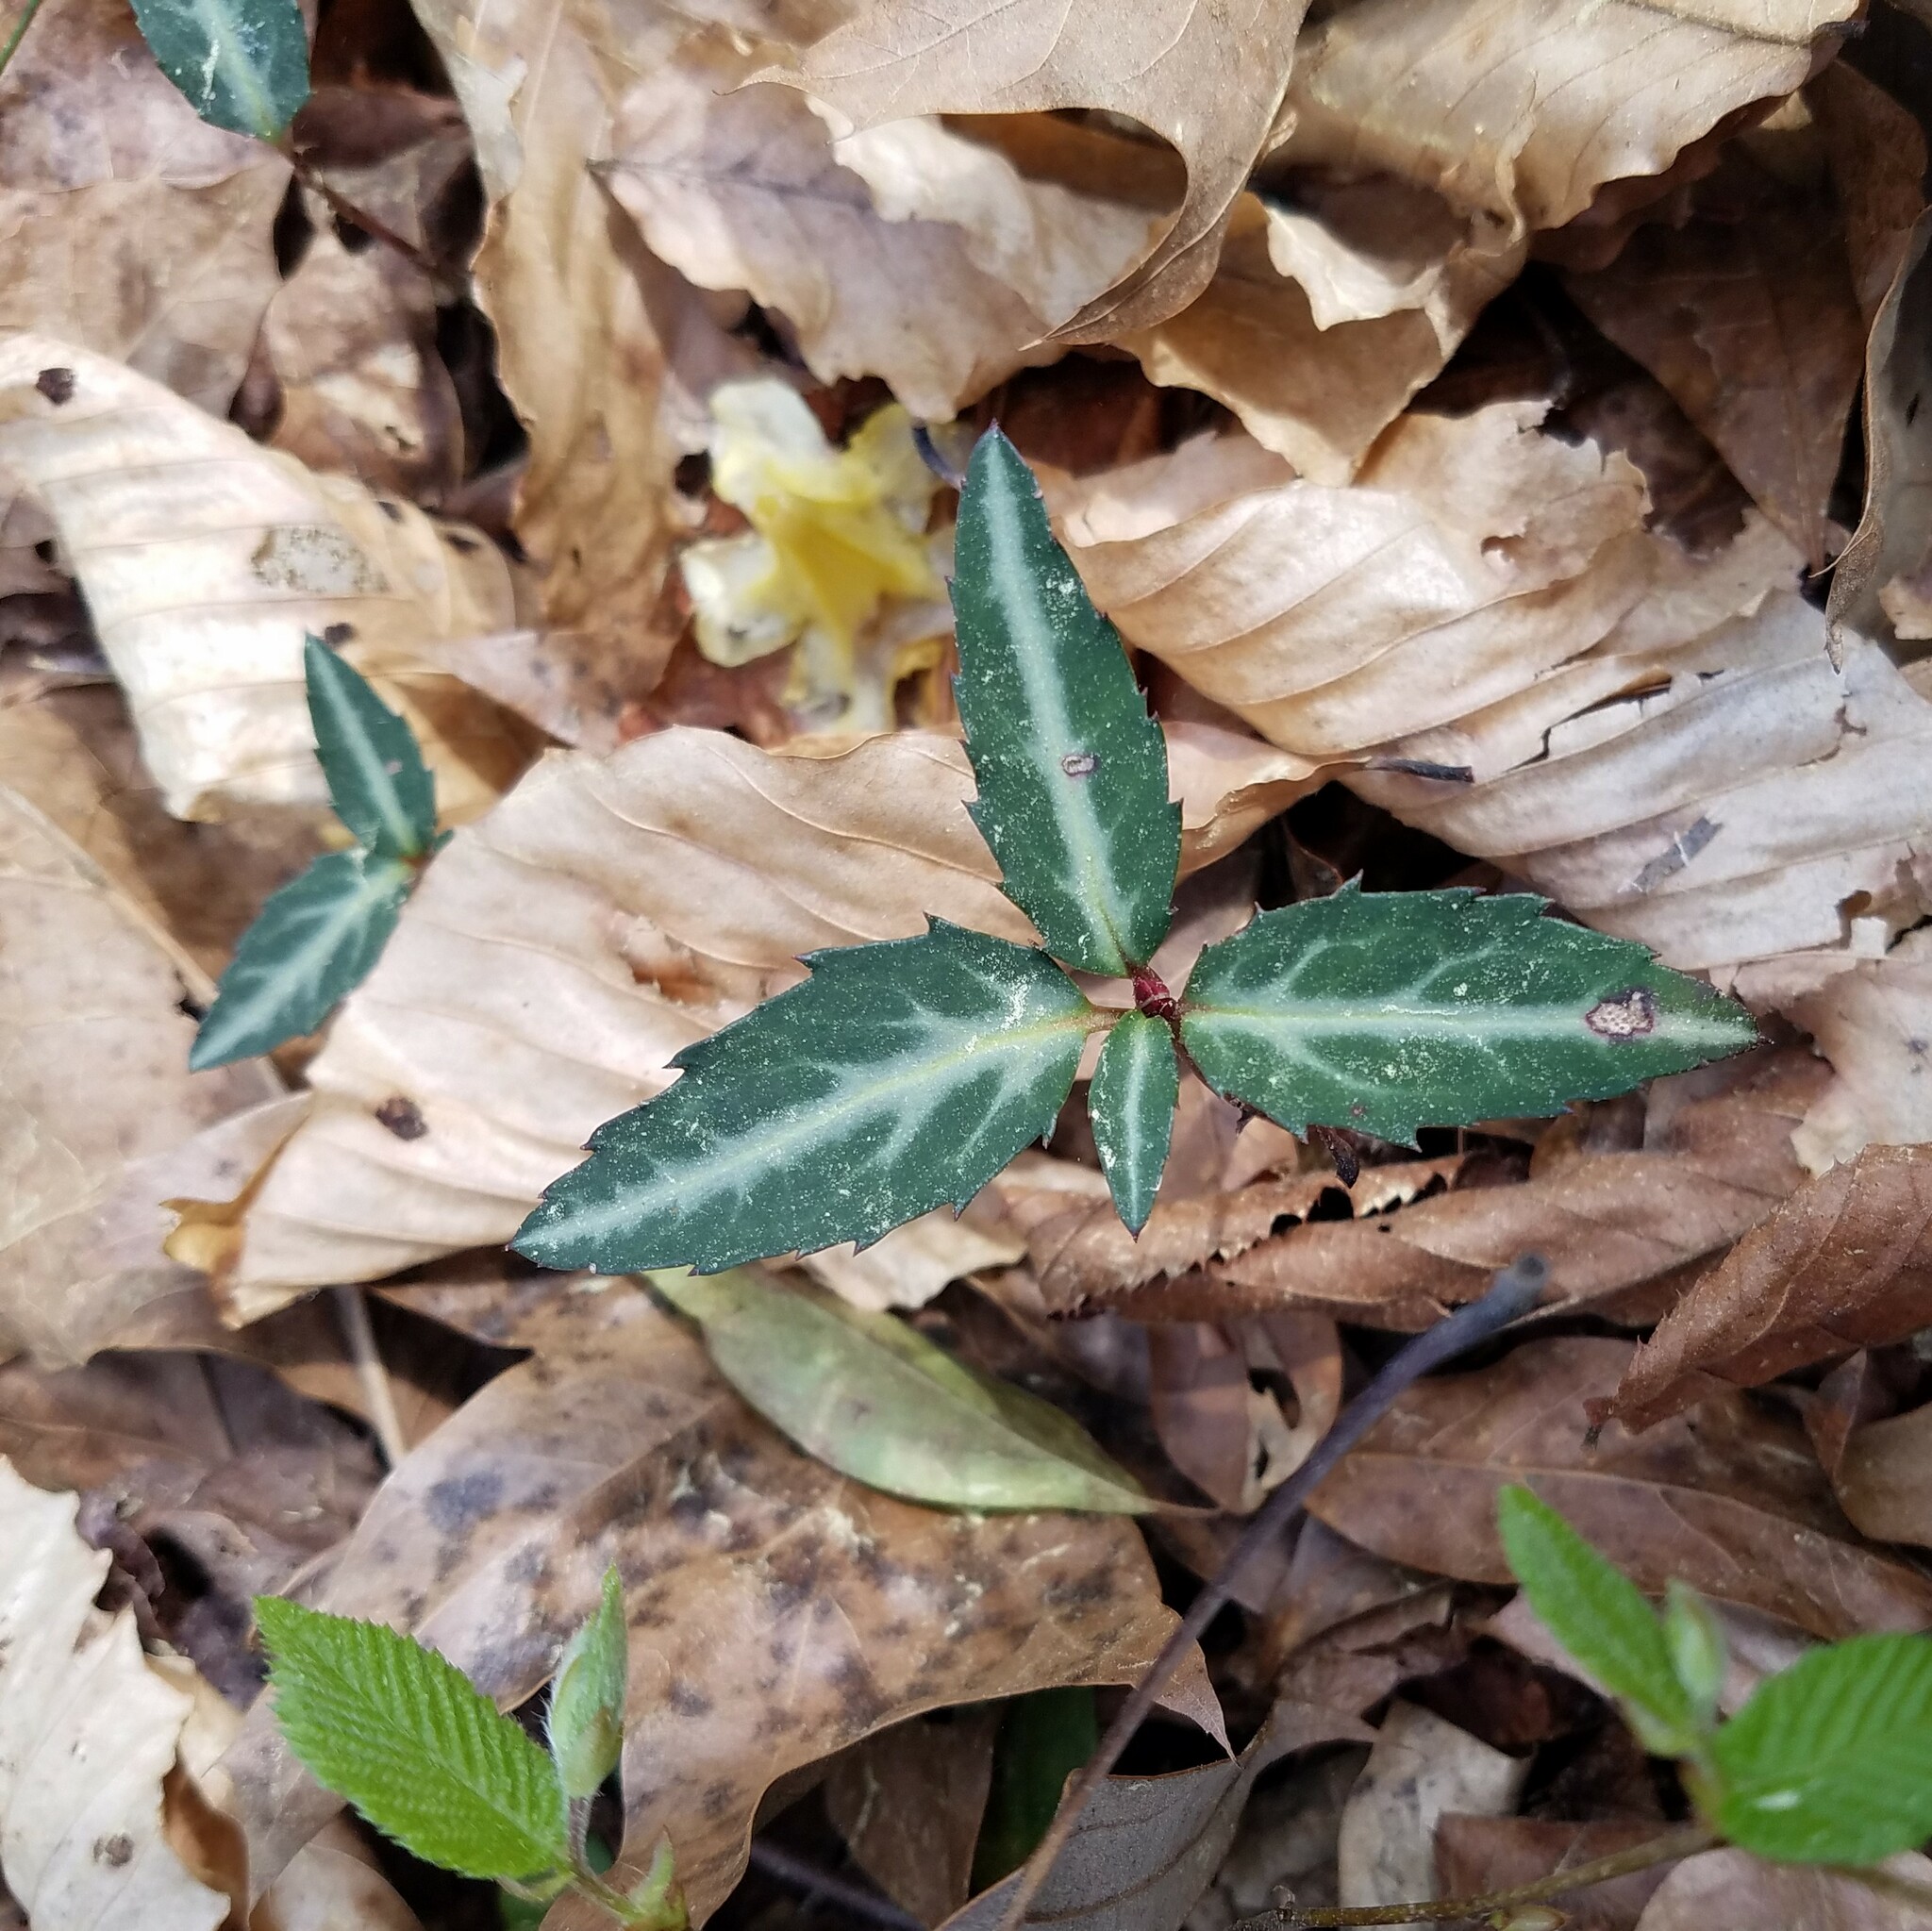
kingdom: Plantae
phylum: Tracheophyta
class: Magnoliopsida
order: Ericales
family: Ericaceae
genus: Chimaphila
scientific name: Chimaphila maculata
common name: Spotted pipsissewa
